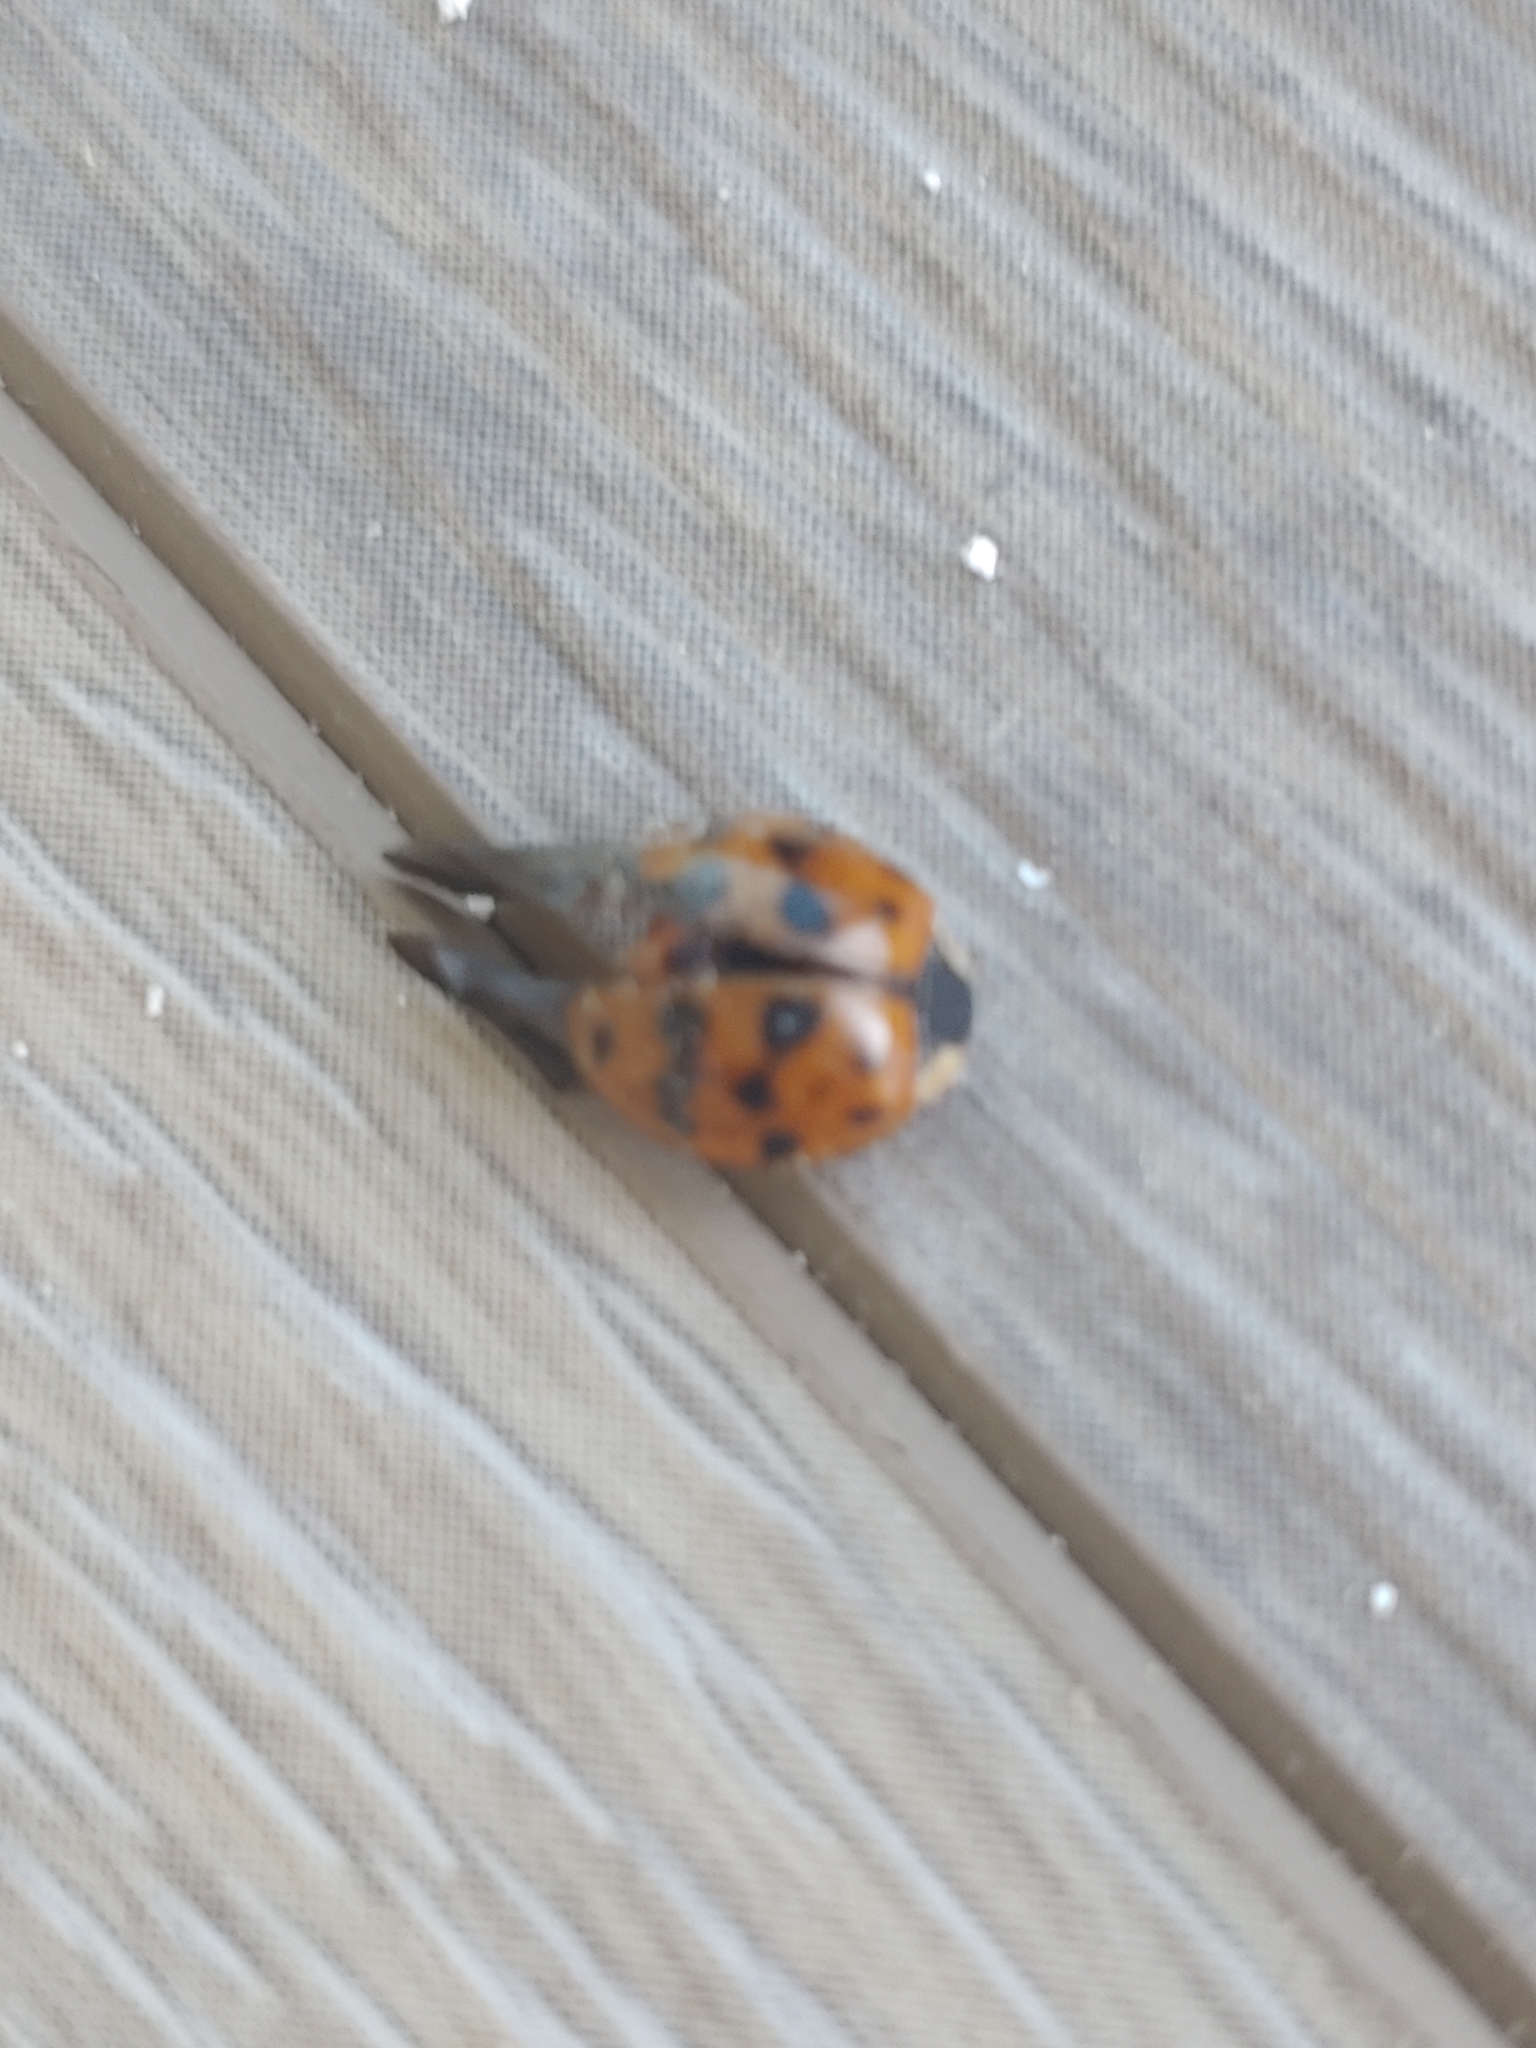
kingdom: Animalia
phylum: Arthropoda
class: Insecta
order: Coleoptera
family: Coccinellidae
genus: Harmonia
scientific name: Harmonia axyridis
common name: Harlequin ladybird
